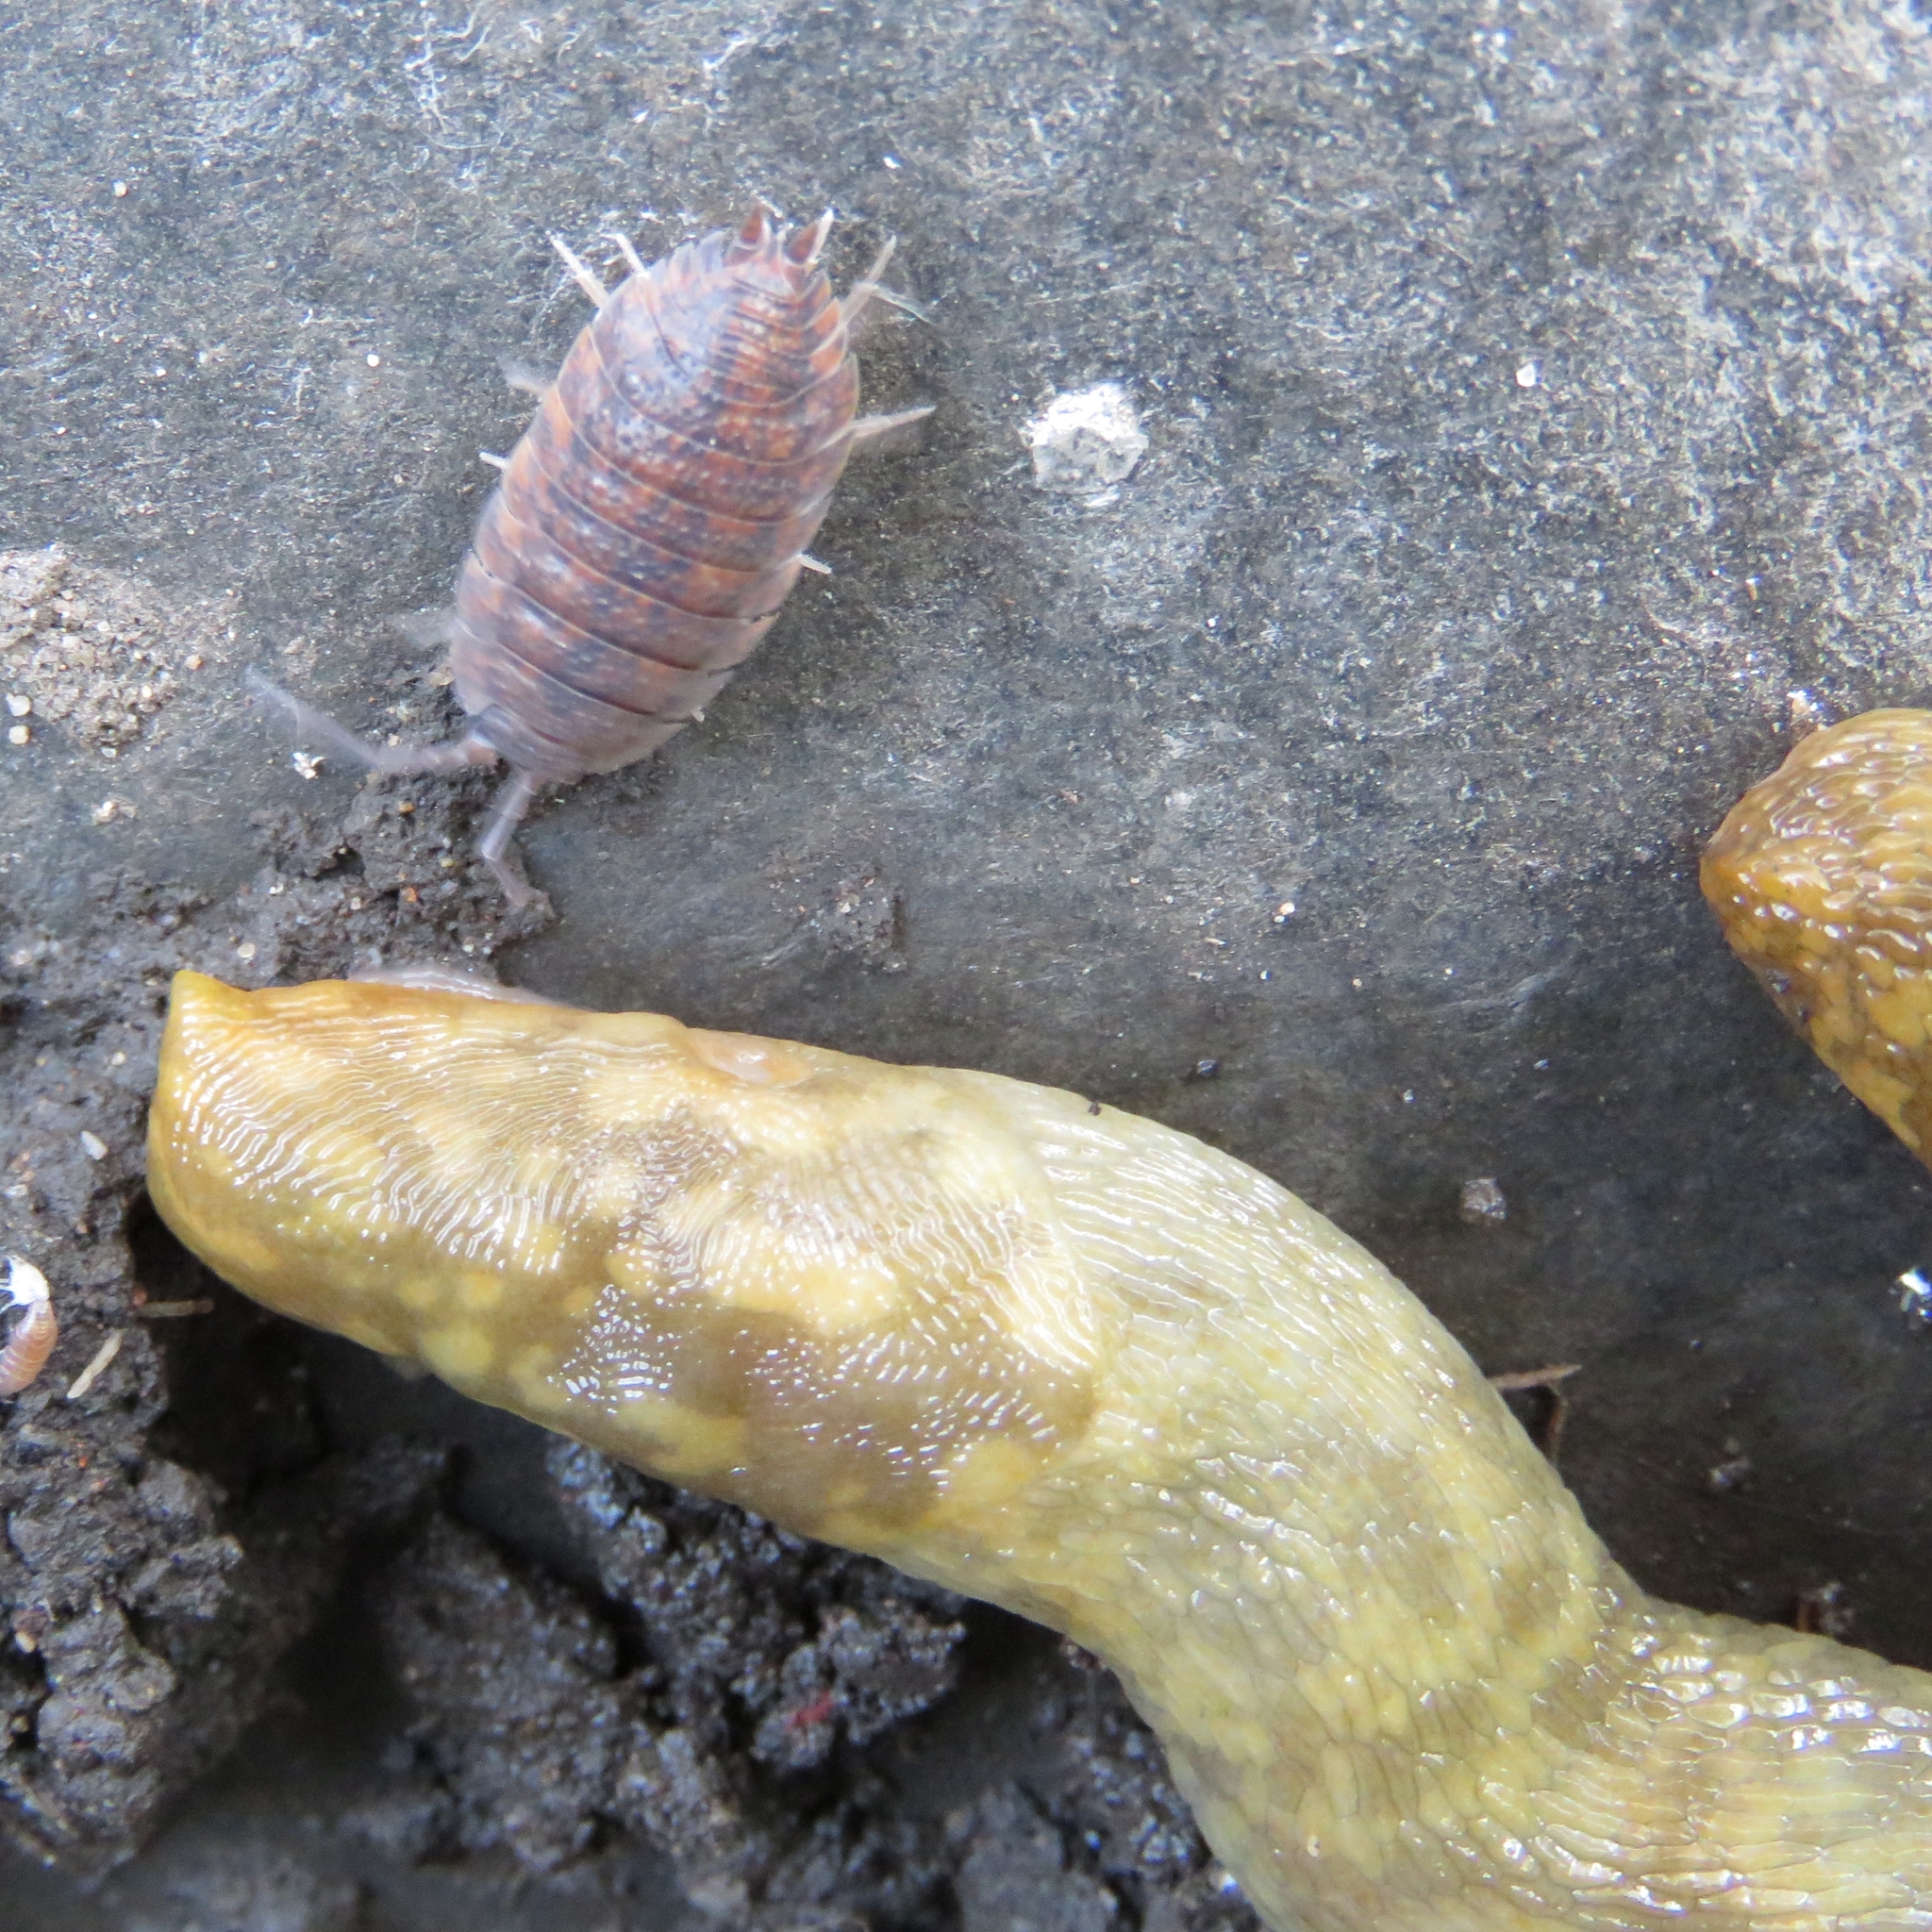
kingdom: Animalia
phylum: Mollusca
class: Gastropoda
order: Stylommatophora
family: Limacidae
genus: Limacus
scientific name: Limacus maculatus
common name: Irish yellow slug
